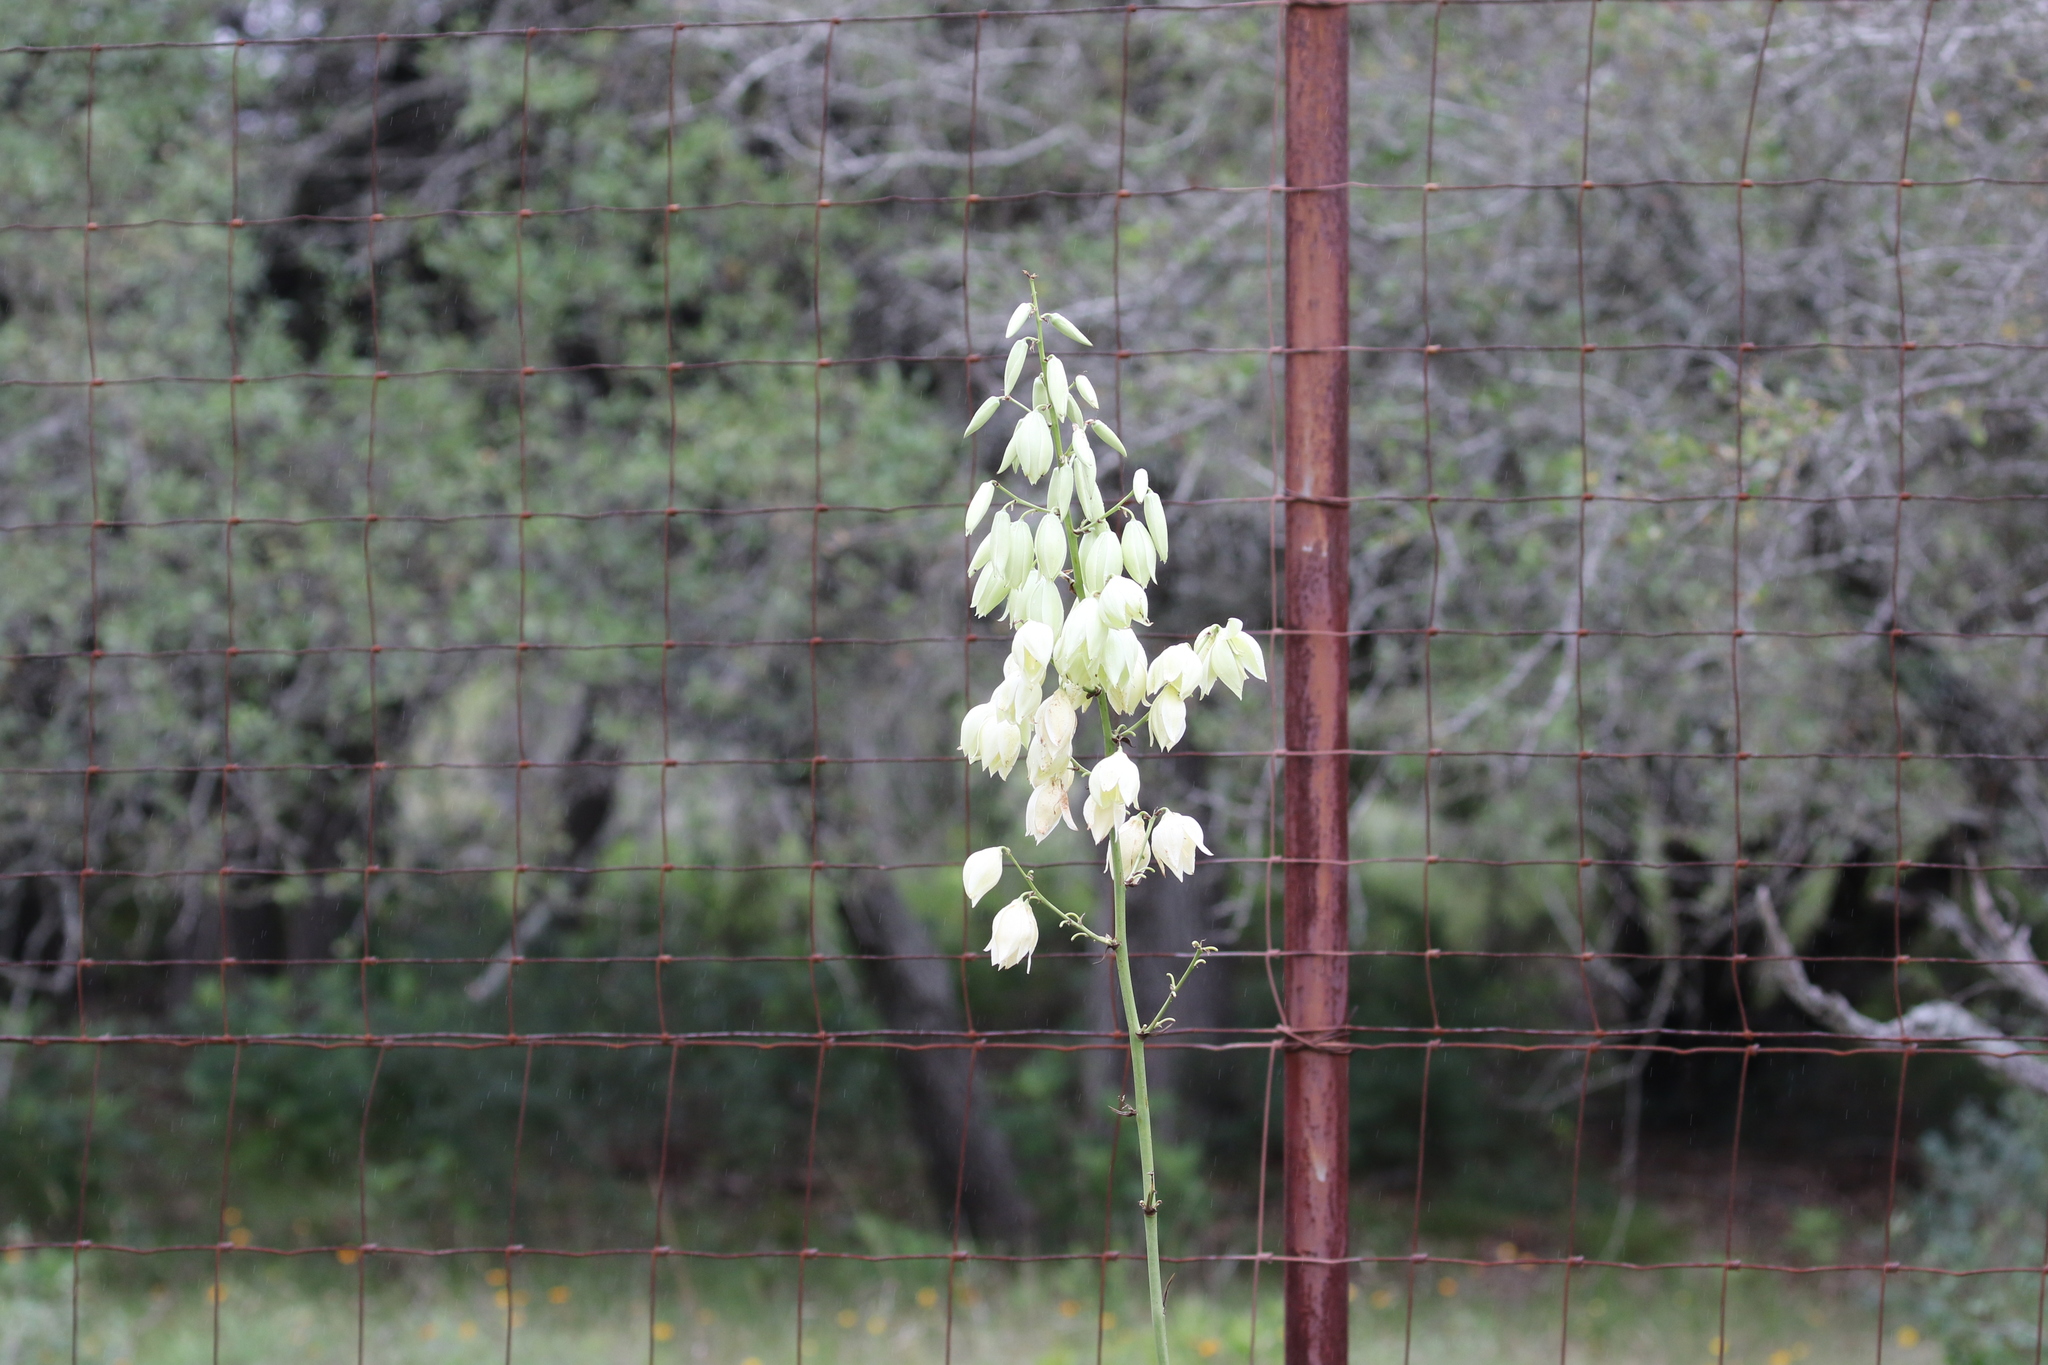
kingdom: Plantae
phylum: Tracheophyta
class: Liliopsida
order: Asparagales
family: Asparagaceae
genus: Yucca
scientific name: Yucca constricta
